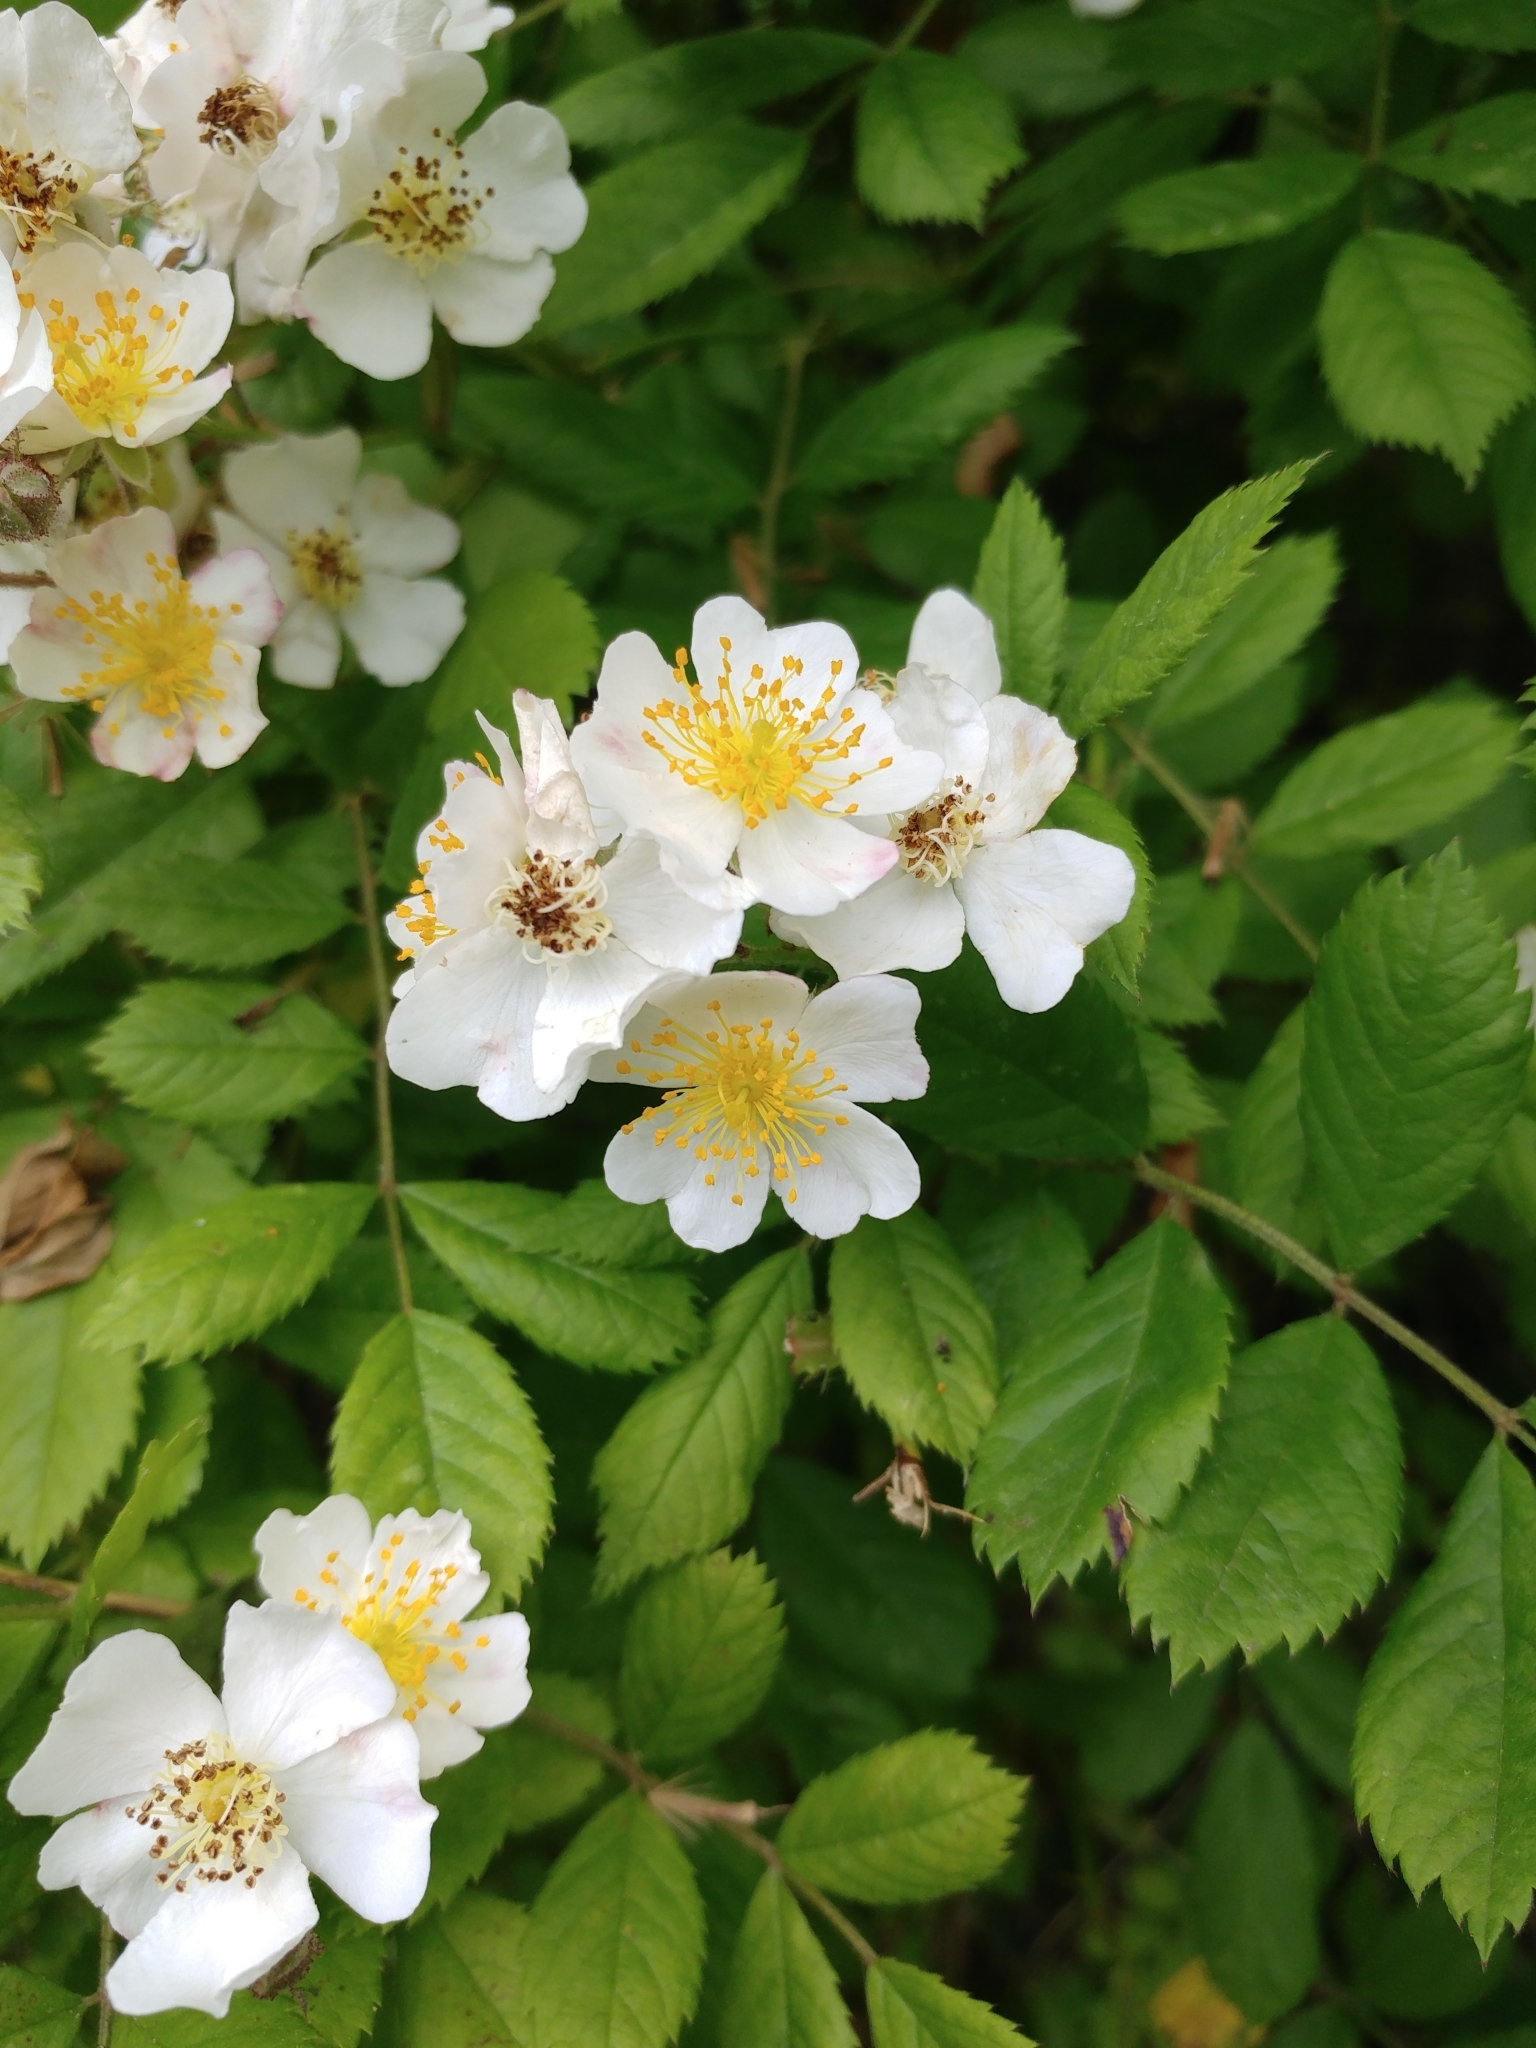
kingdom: Plantae
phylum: Tracheophyta
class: Magnoliopsida
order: Rosales
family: Rosaceae
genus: Rosa
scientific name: Rosa multiflora
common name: Multiflora rose
